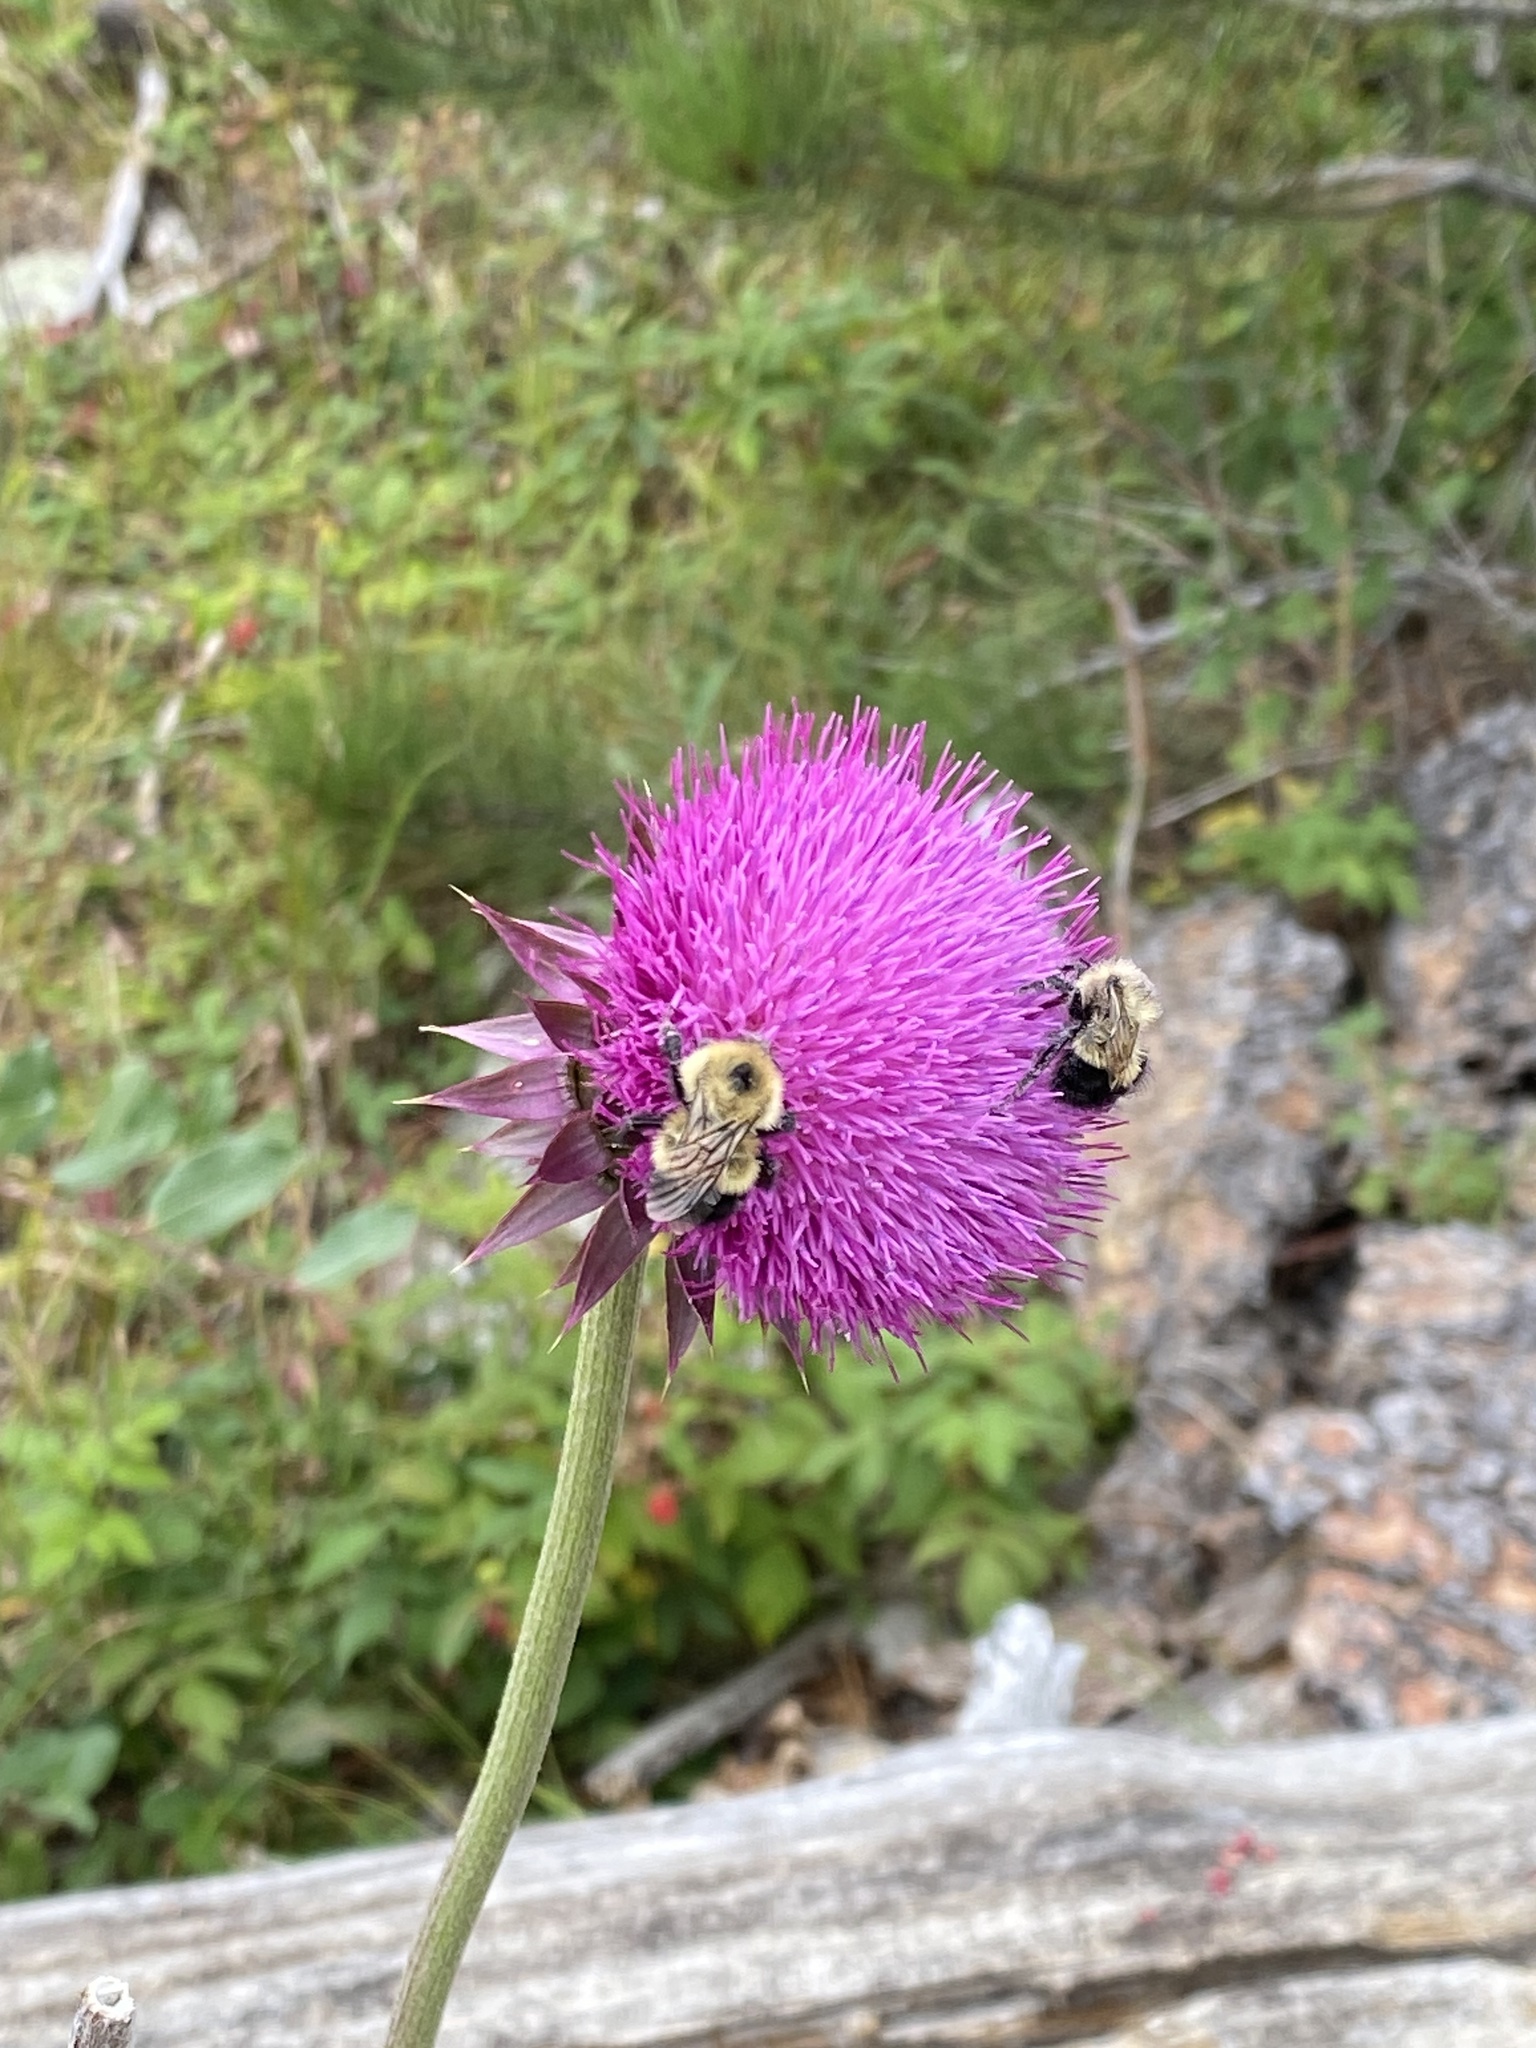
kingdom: Plantae
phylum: Tracheophyta
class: Magnoliopsida
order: Asterales
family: Asteraceae
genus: Carduus
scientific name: Carduus nutans
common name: Musk thistle
